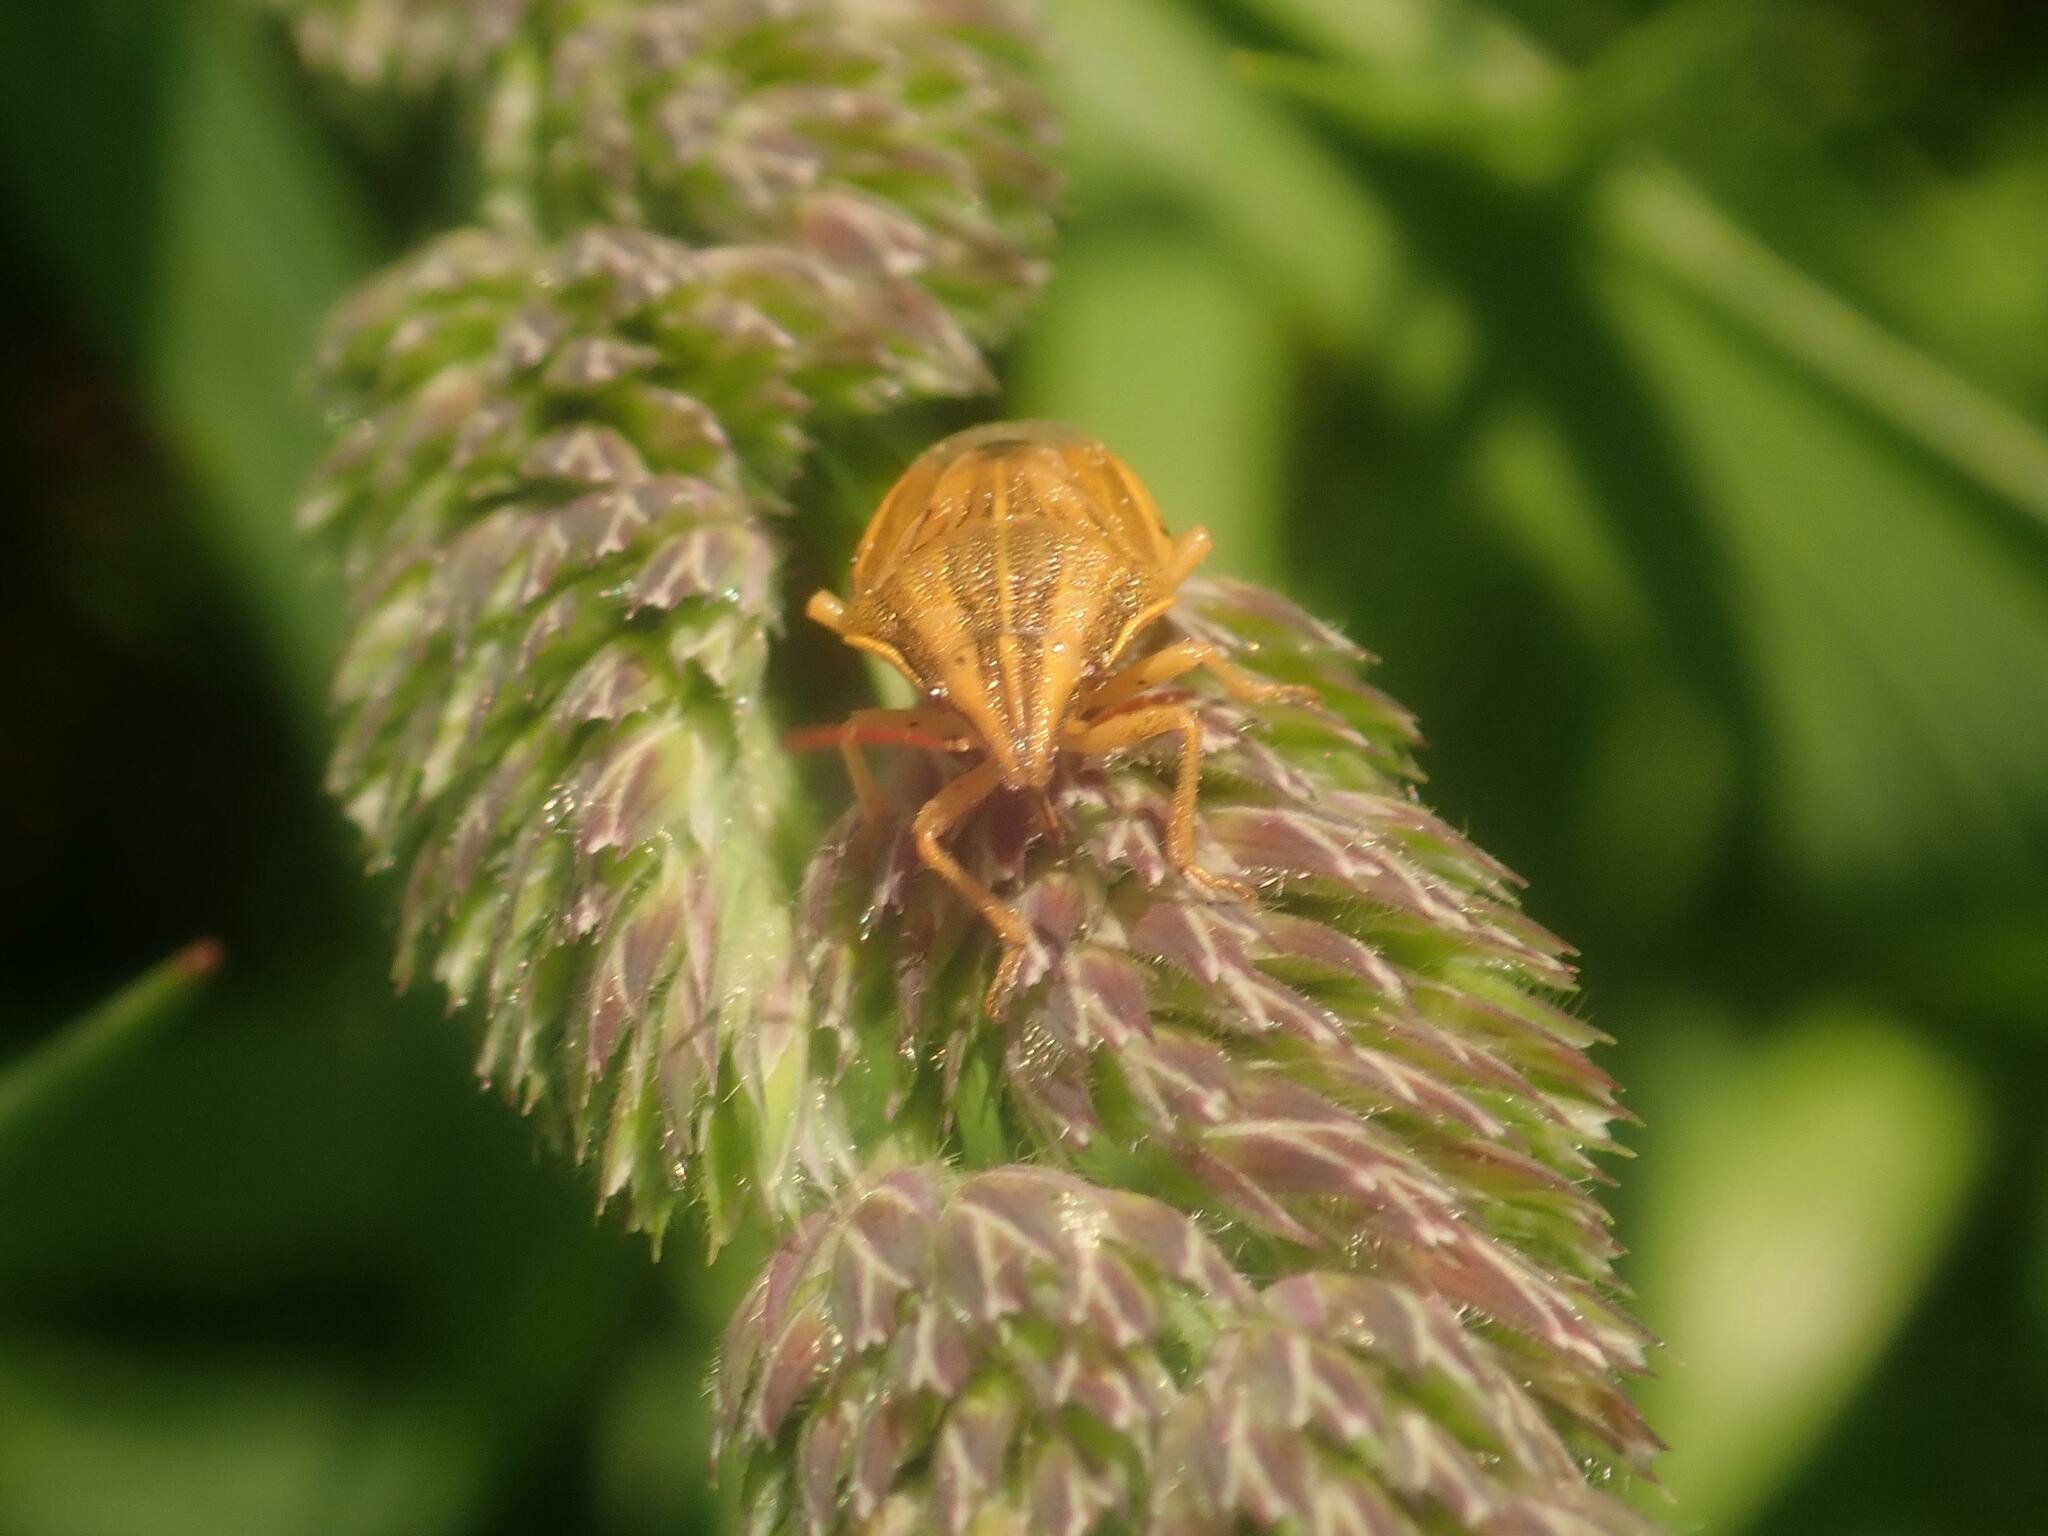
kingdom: Animalia
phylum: Arthropoda
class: Insecta
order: Hemiptera
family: Pentatomidae
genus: Aelia
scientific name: Aelia acuminata
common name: Bishop's mitre
